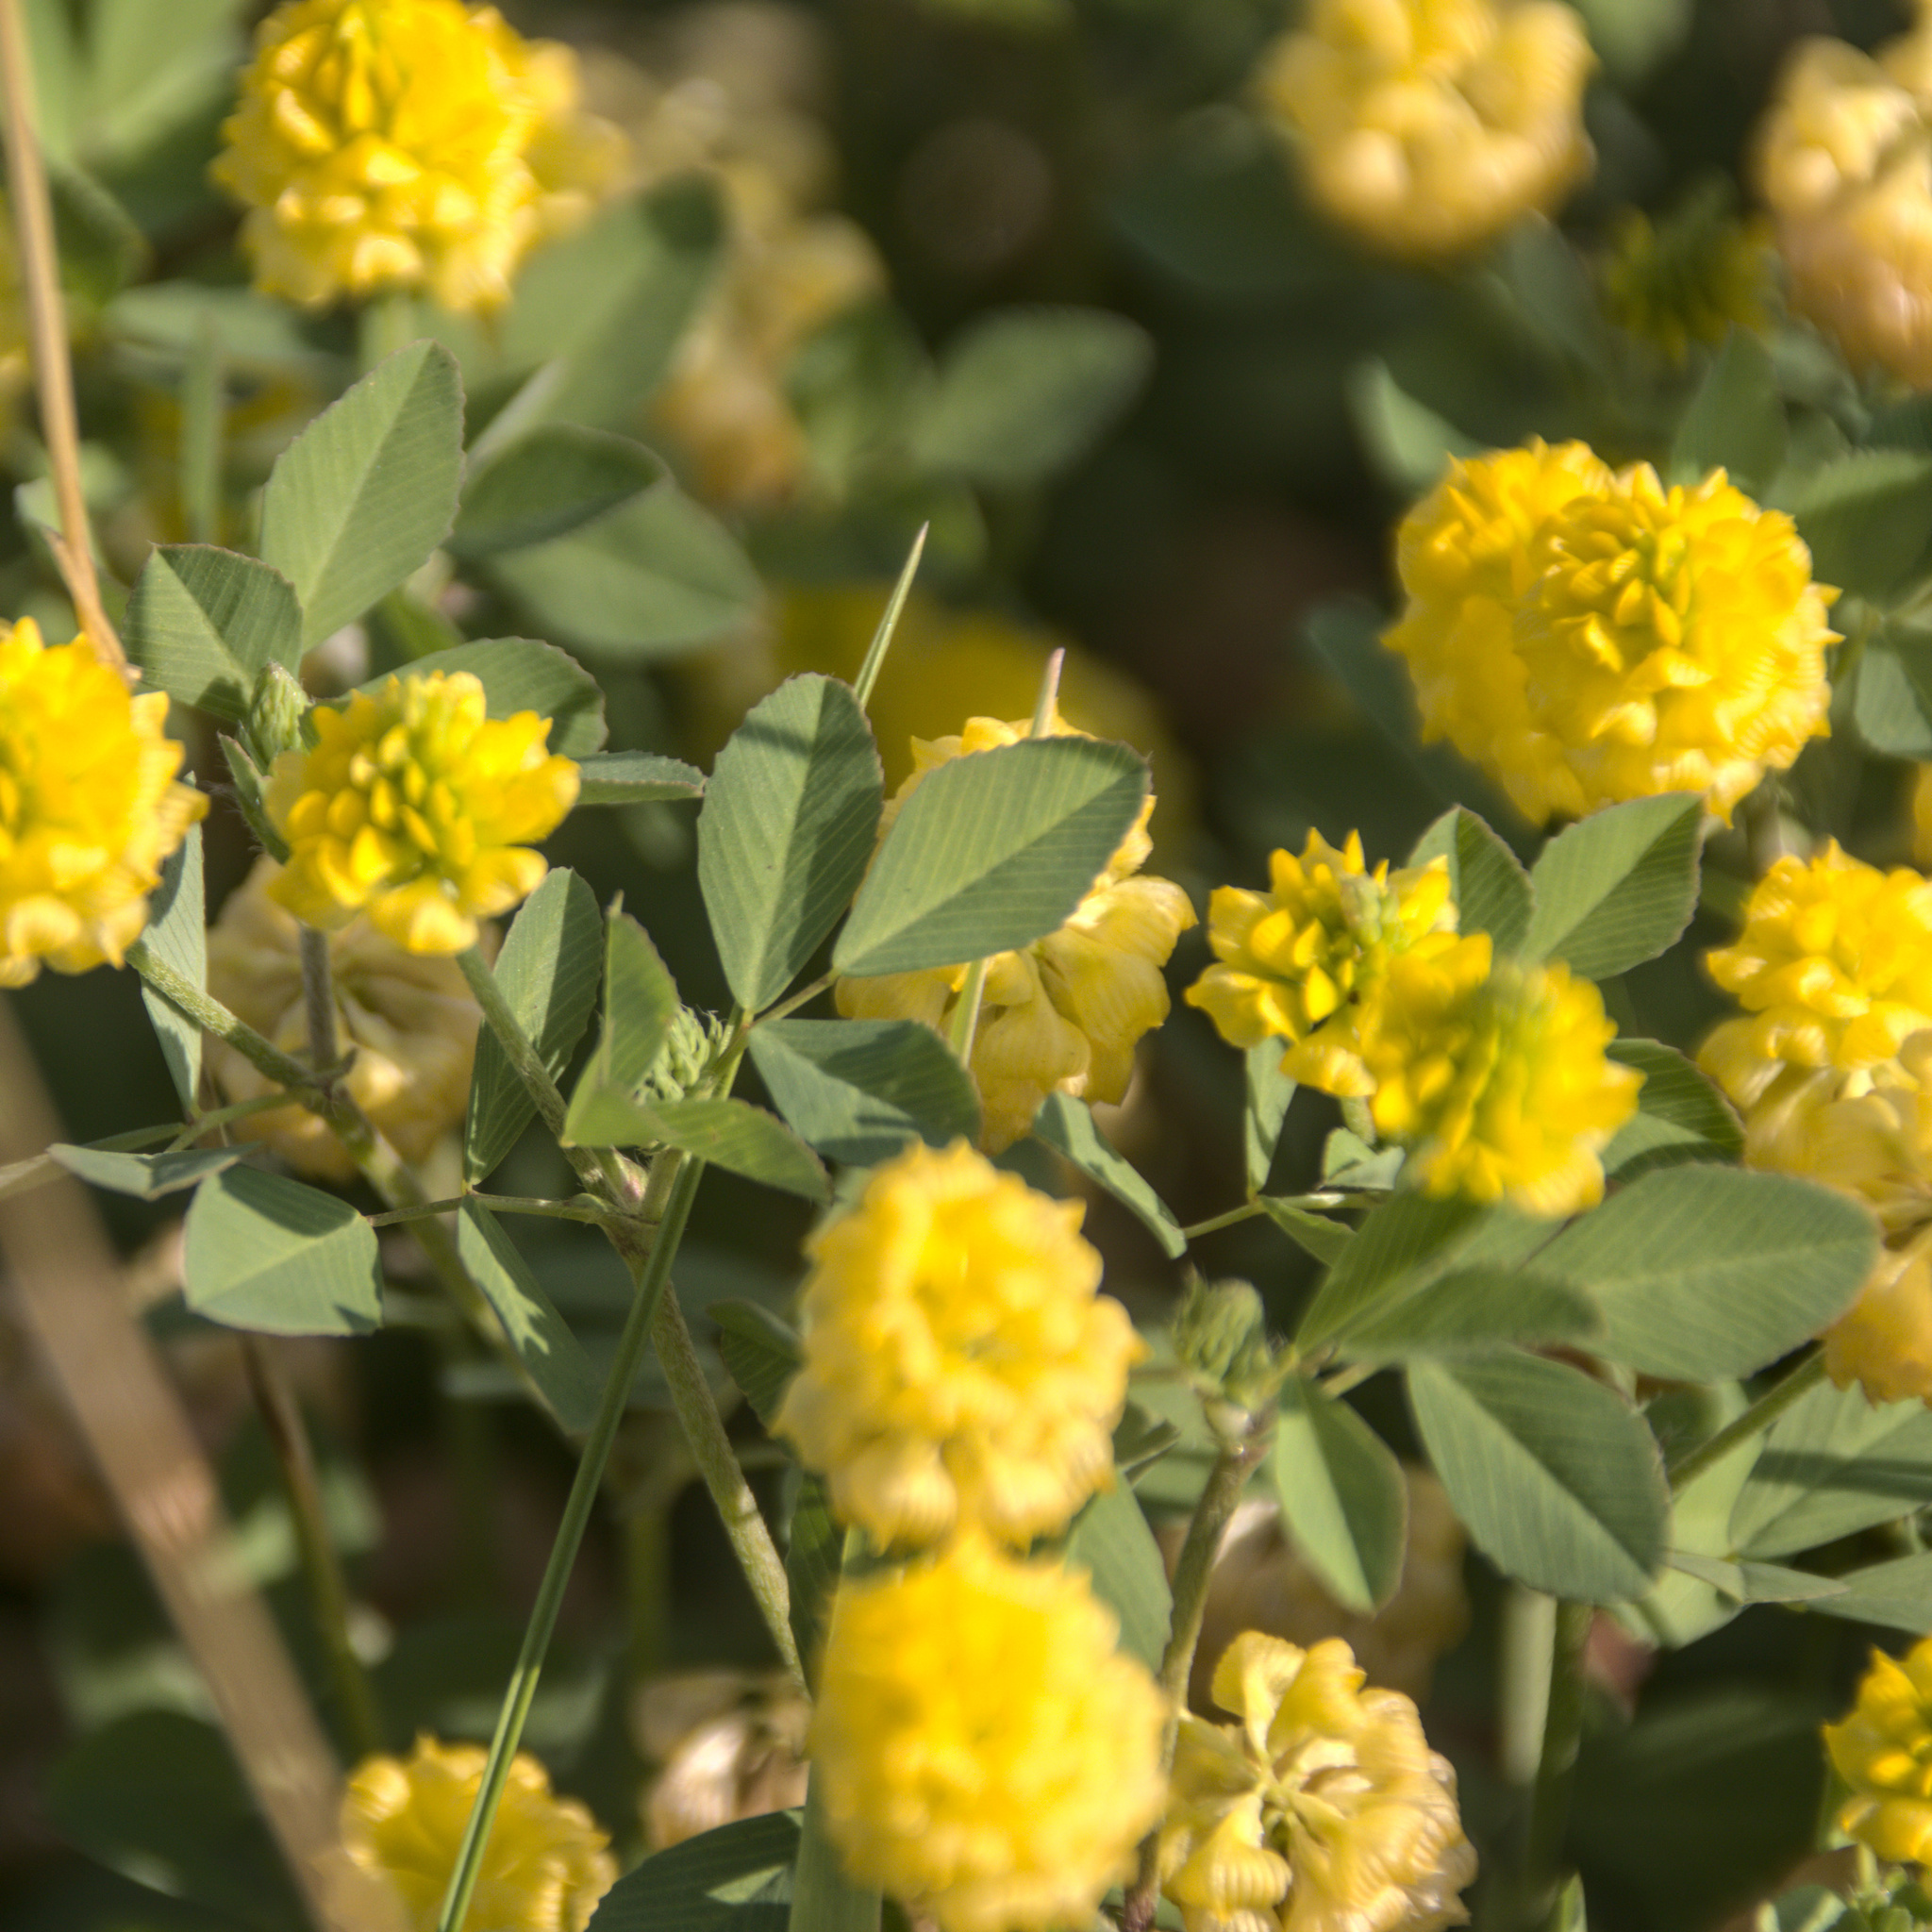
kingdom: Plantae
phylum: Tracheophyta
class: Magnoliopsida
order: Fabales
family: Fabaceae
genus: Trifolium
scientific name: Trifolium campestre
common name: Field clover
